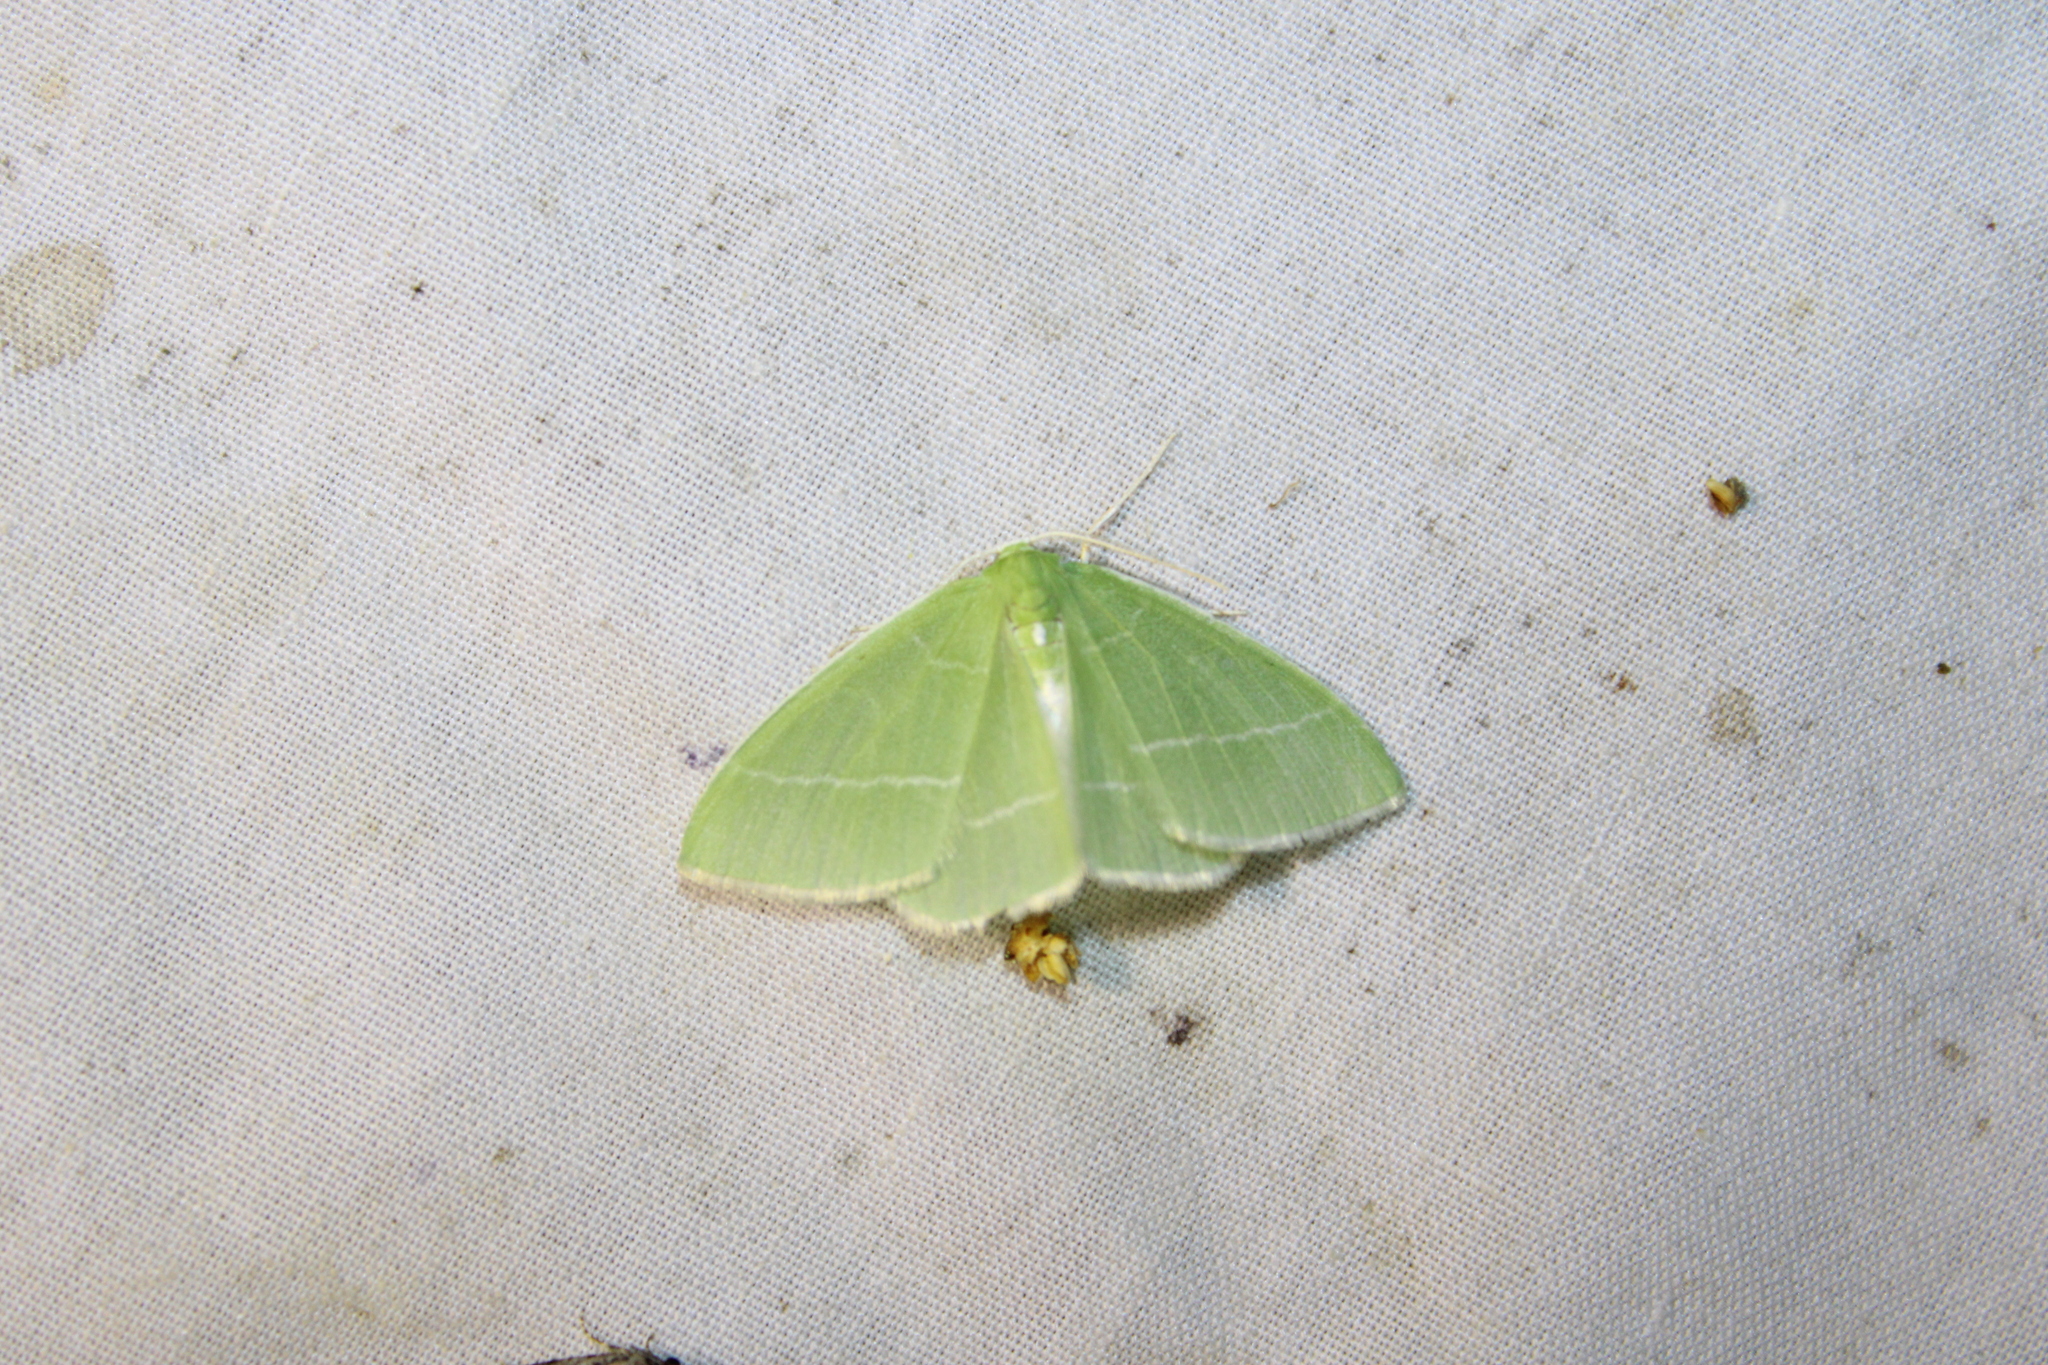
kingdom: Animalia
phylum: Arthropoda
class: Insecta
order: Lepidoptera
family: Geometridae
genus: Nemoria
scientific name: Nemoria mimosaria
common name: White-fringed emerald
